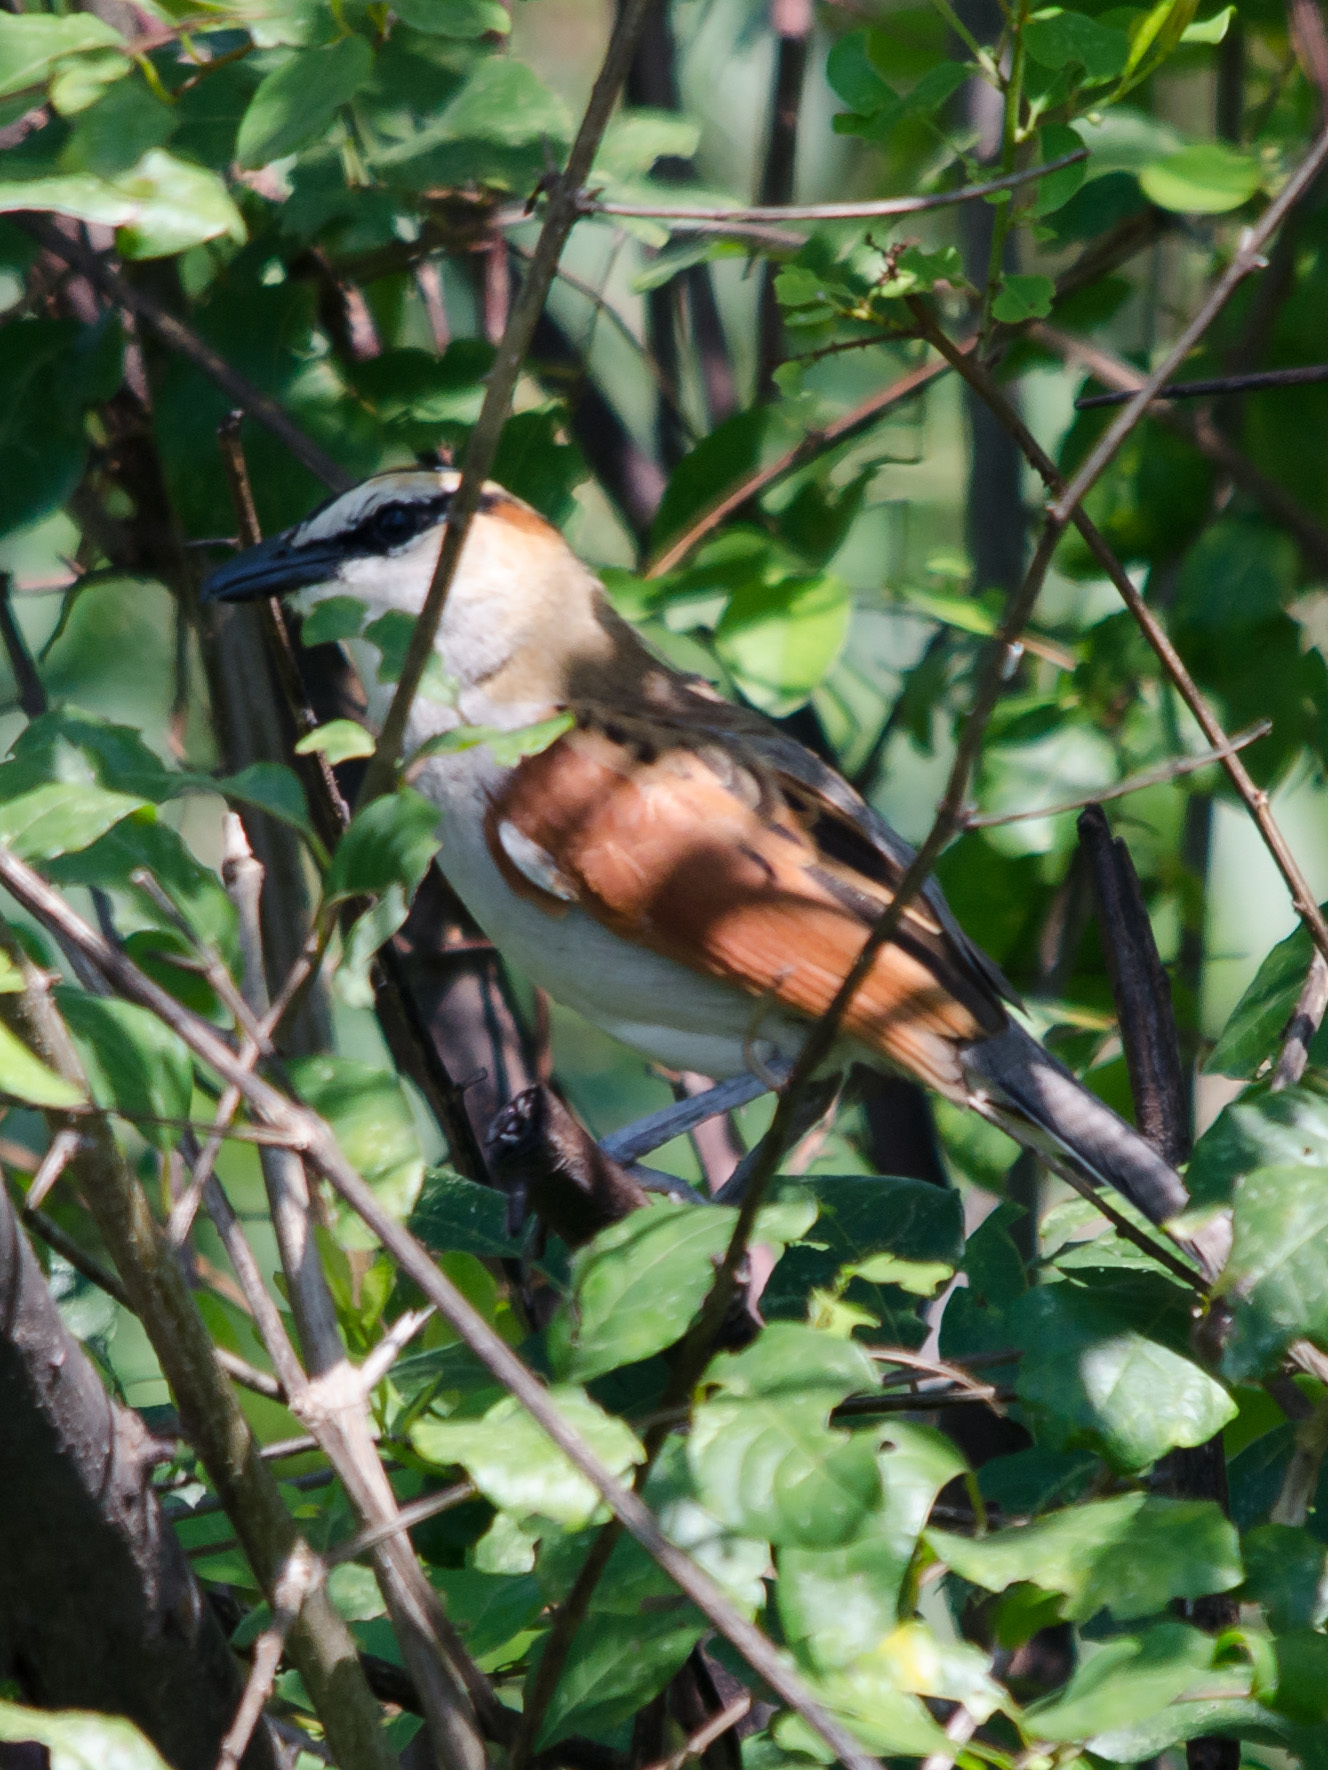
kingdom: Animalia
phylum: Chordata
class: Aves
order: Passeriformes
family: Malaconotidae
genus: Tchagra
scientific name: Tchagra senegalus
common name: Black-crowned tchagra
